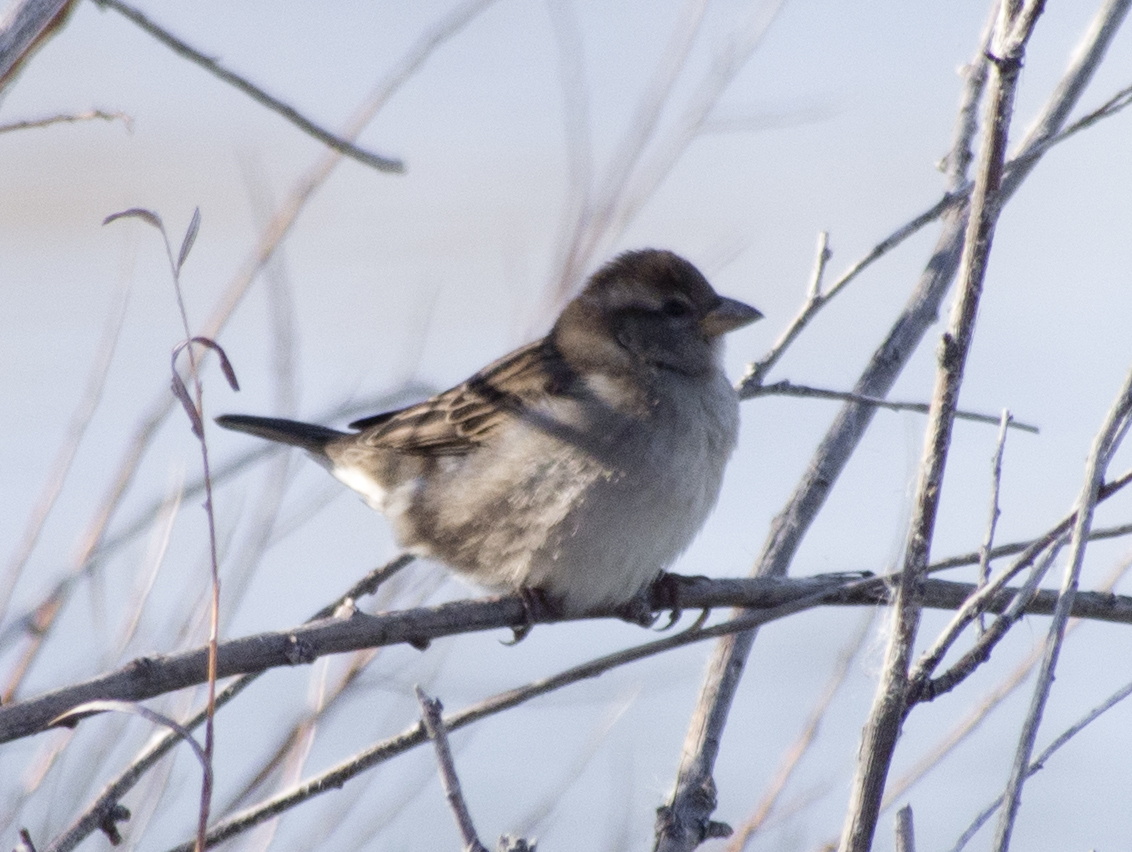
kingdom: Animalia
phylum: Chordata
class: Aves
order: Passeriformes
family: Passeridae
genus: Passer
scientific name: Passer domesticus
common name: House sparrow
